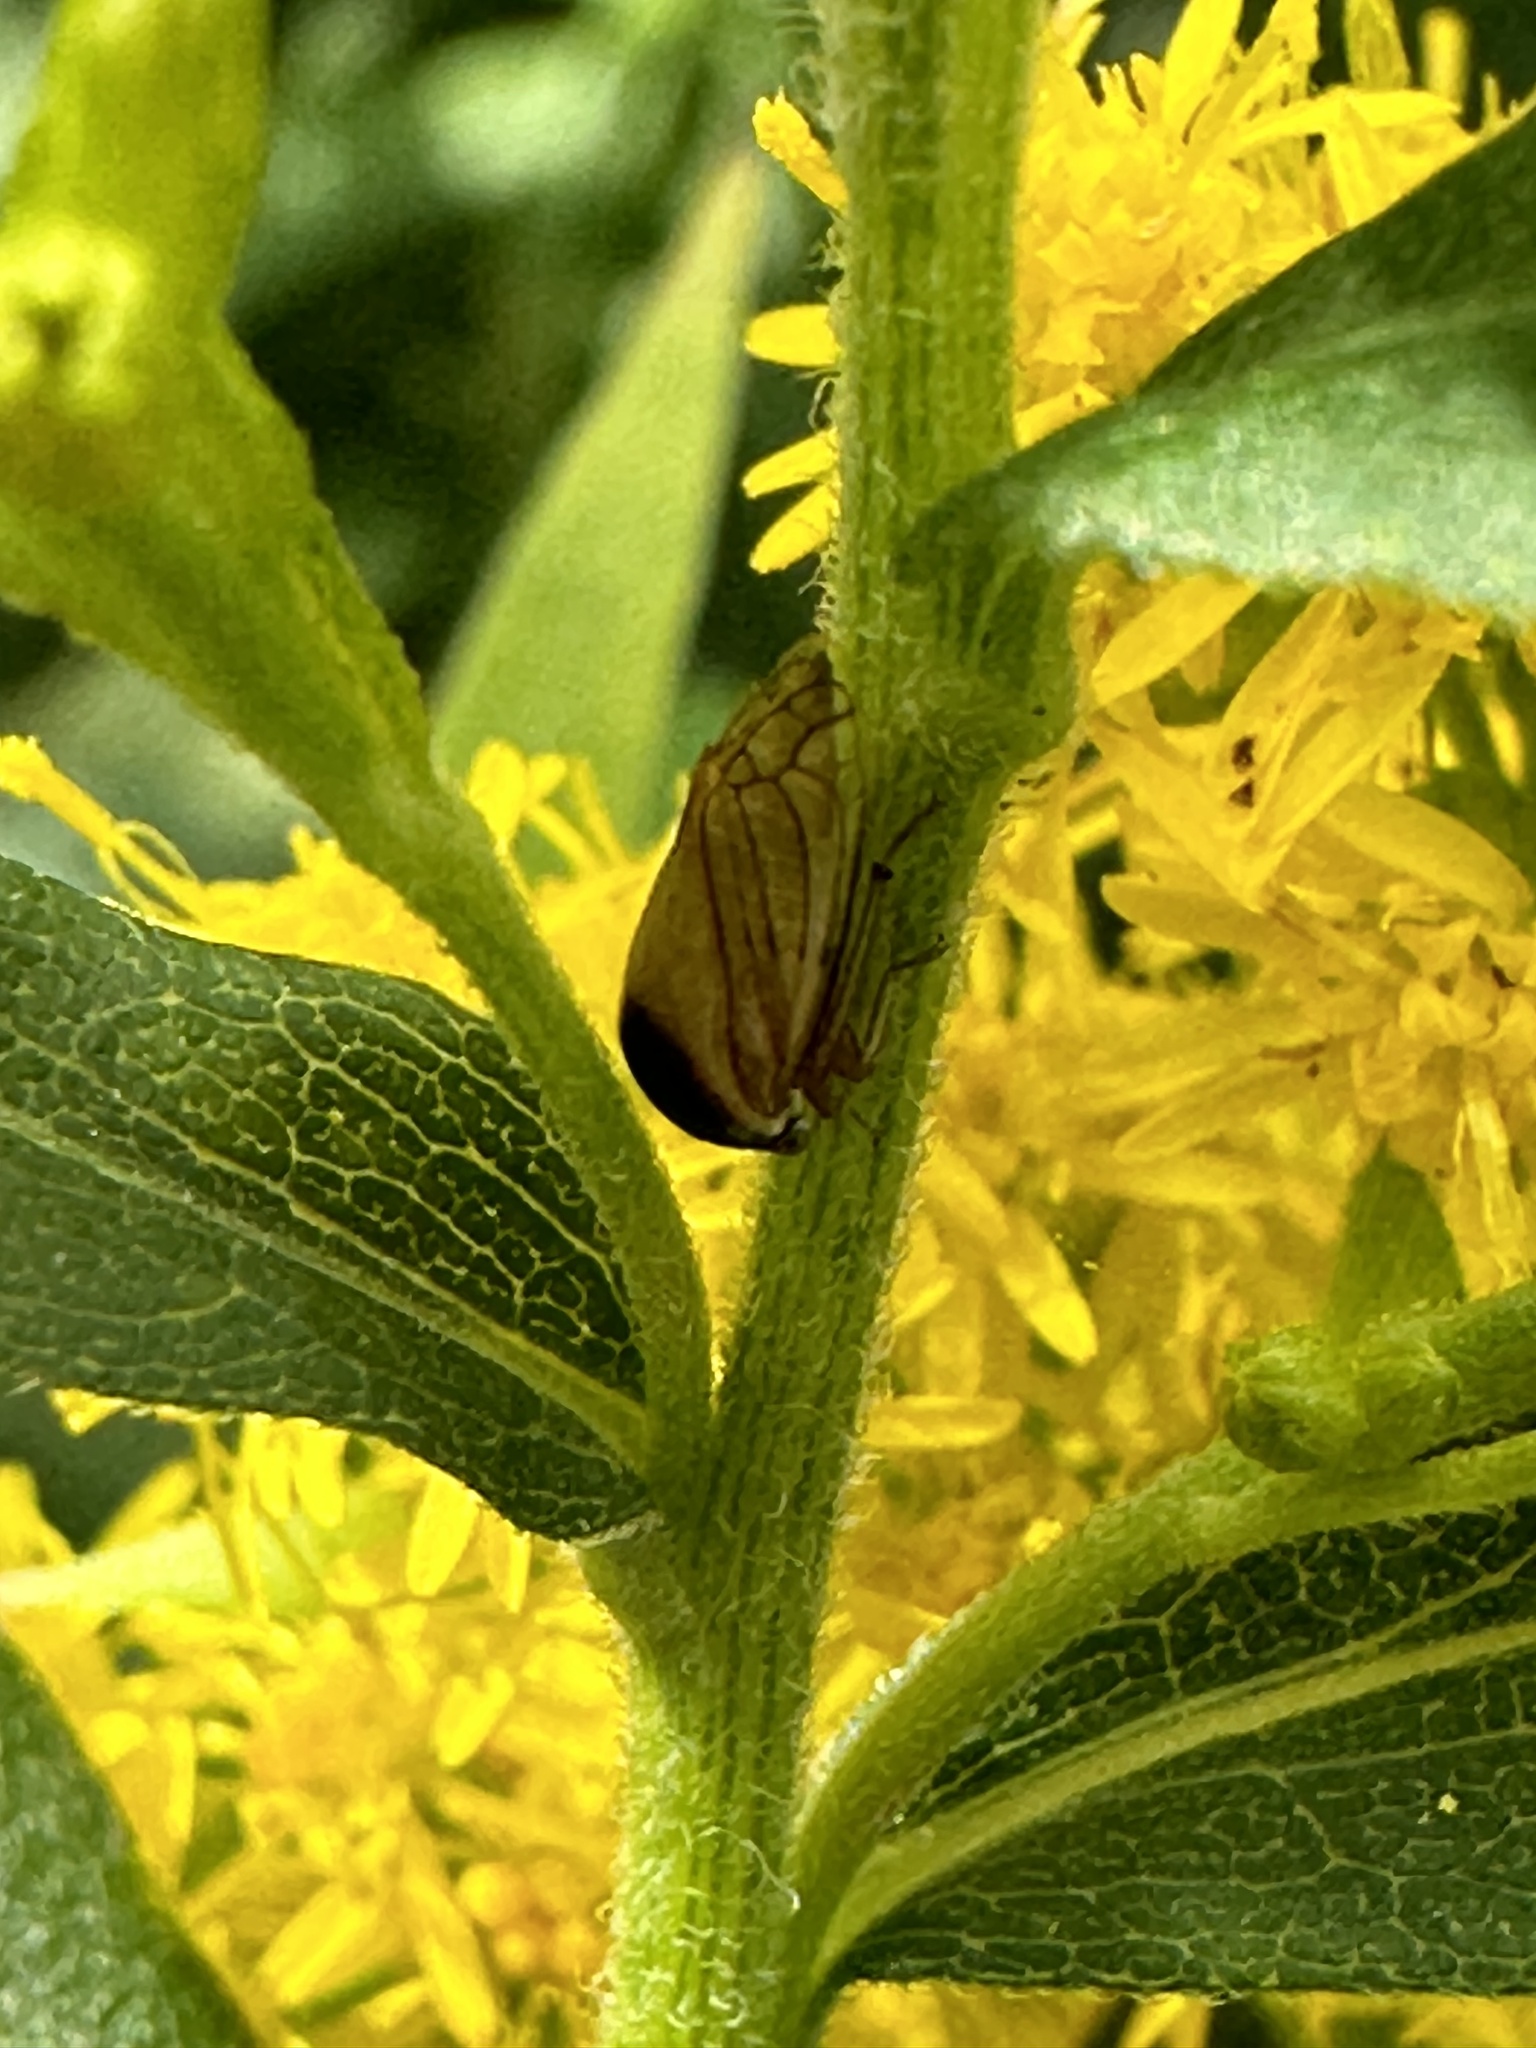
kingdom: Animalia
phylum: Arthropoda
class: Insecta
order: Hemiptera
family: Membracidae
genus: Acutalis
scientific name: Acutalis tartarea
